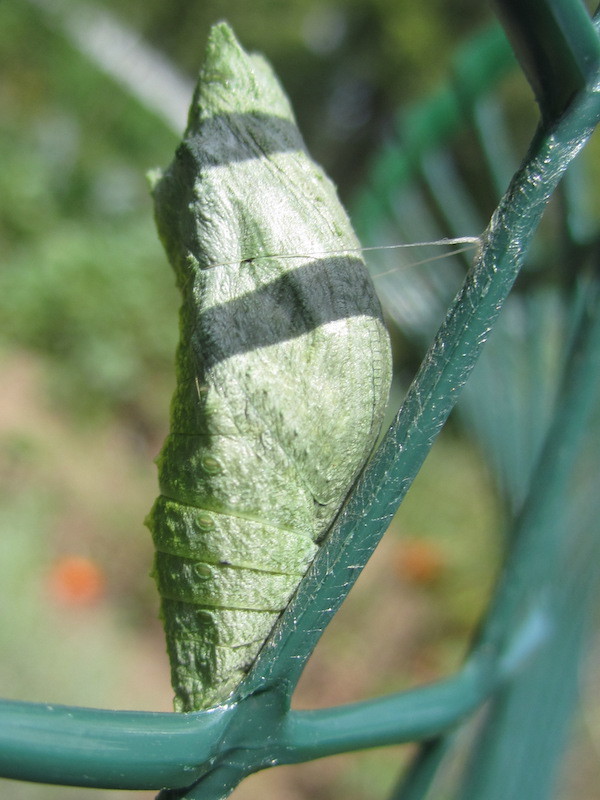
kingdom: Animalia
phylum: Arthropoda
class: Insecta
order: Lepidoptera
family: Papilionidae
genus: Papilio
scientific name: Papilio polyxenes
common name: Black swallowtail
